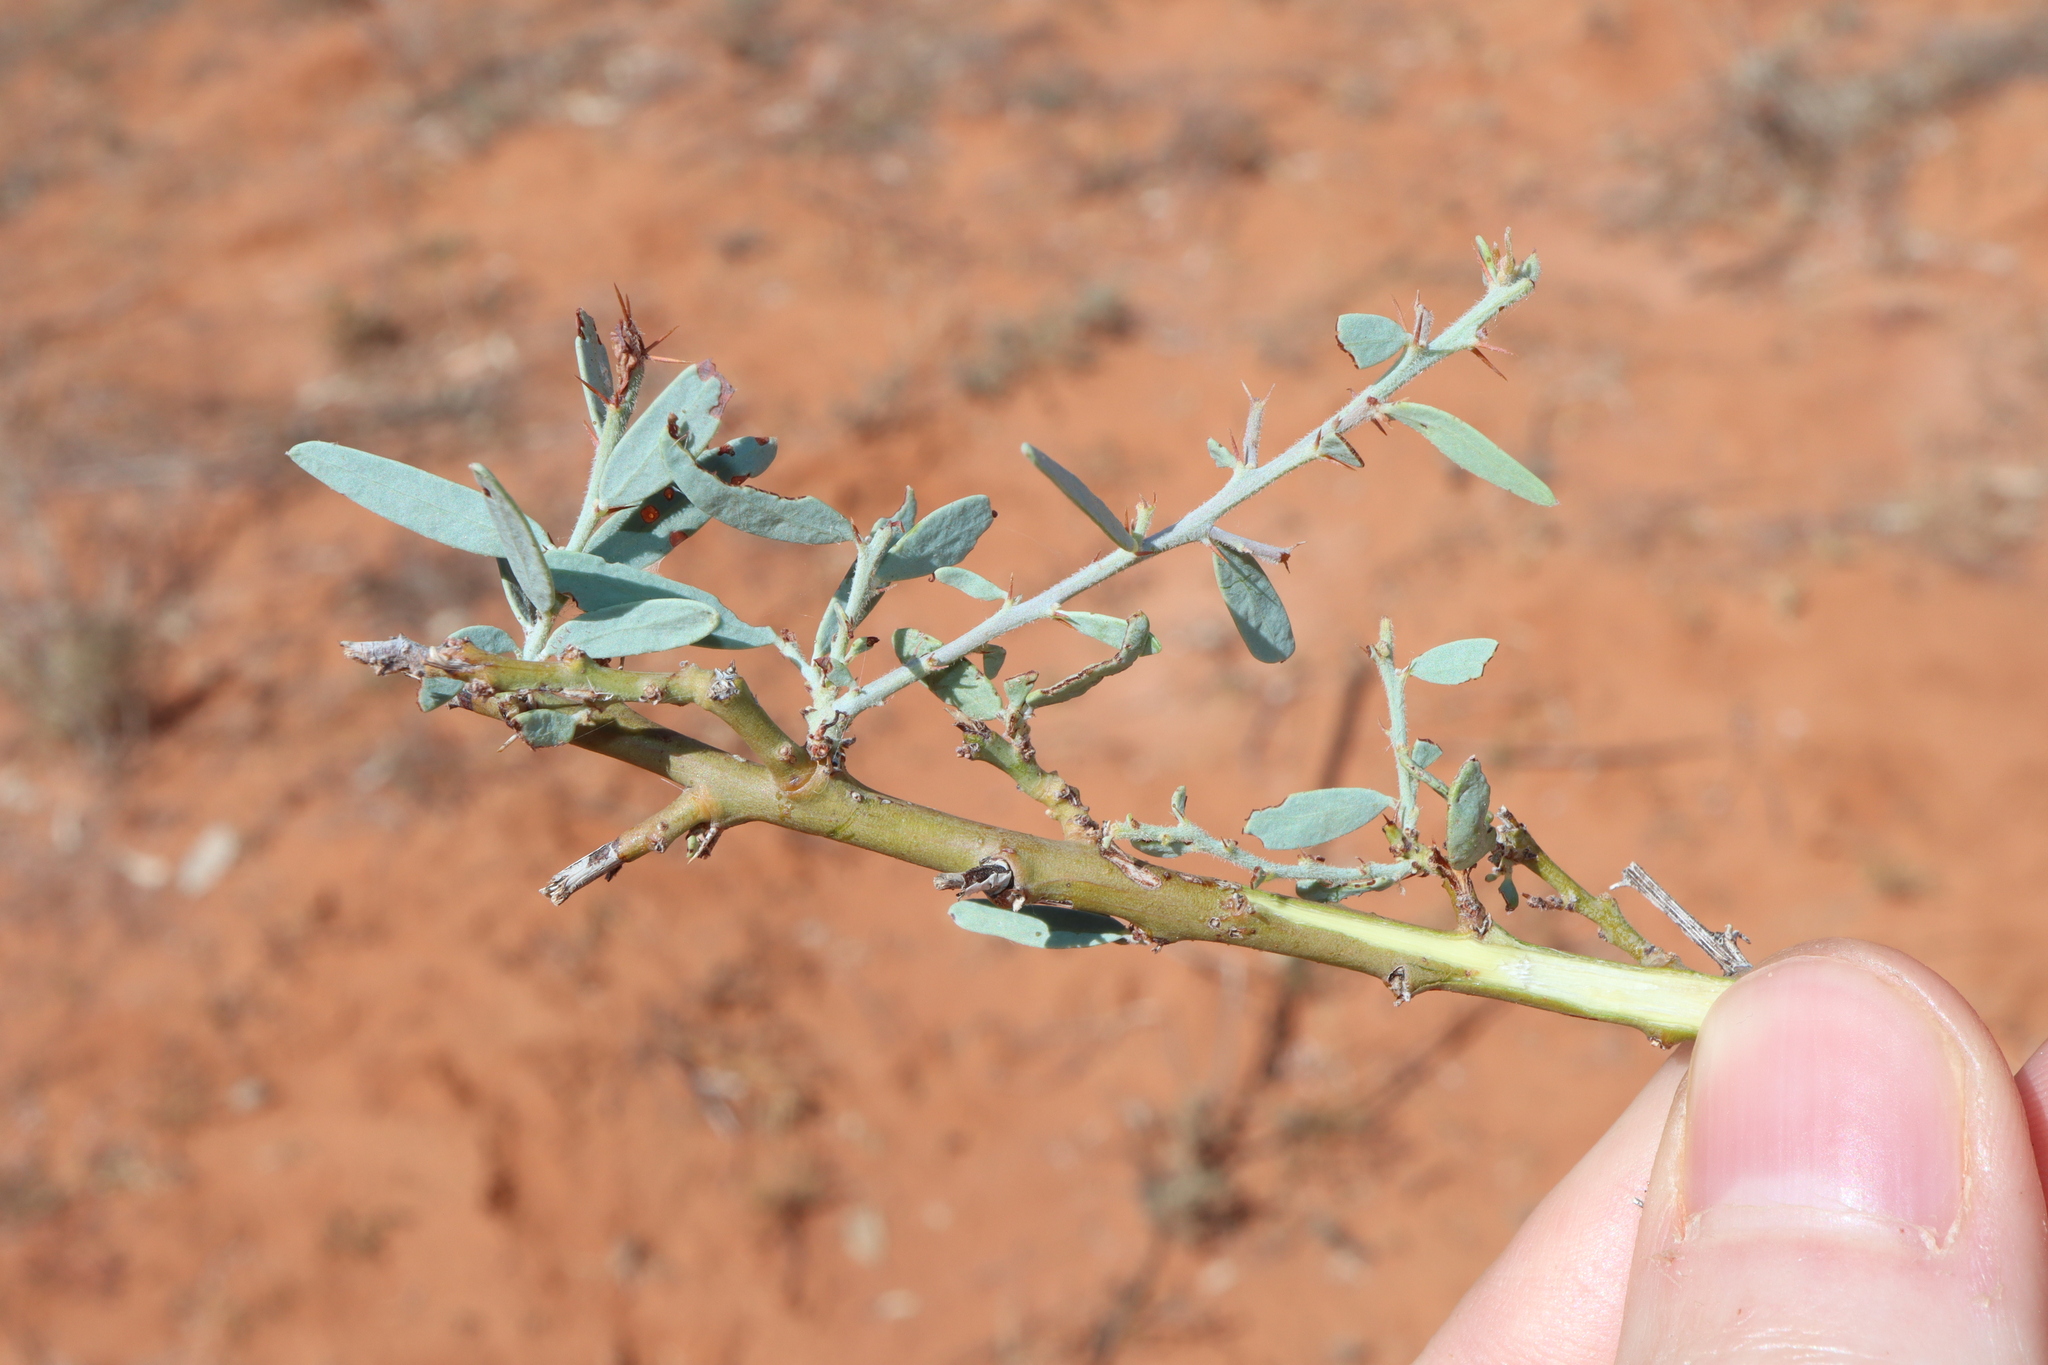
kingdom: Plantae
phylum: Tracheophyta
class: Magnoliopsida
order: Fabales
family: Fabaceae
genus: Acacia
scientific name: Acacia victoriae
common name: Bramble wattle
